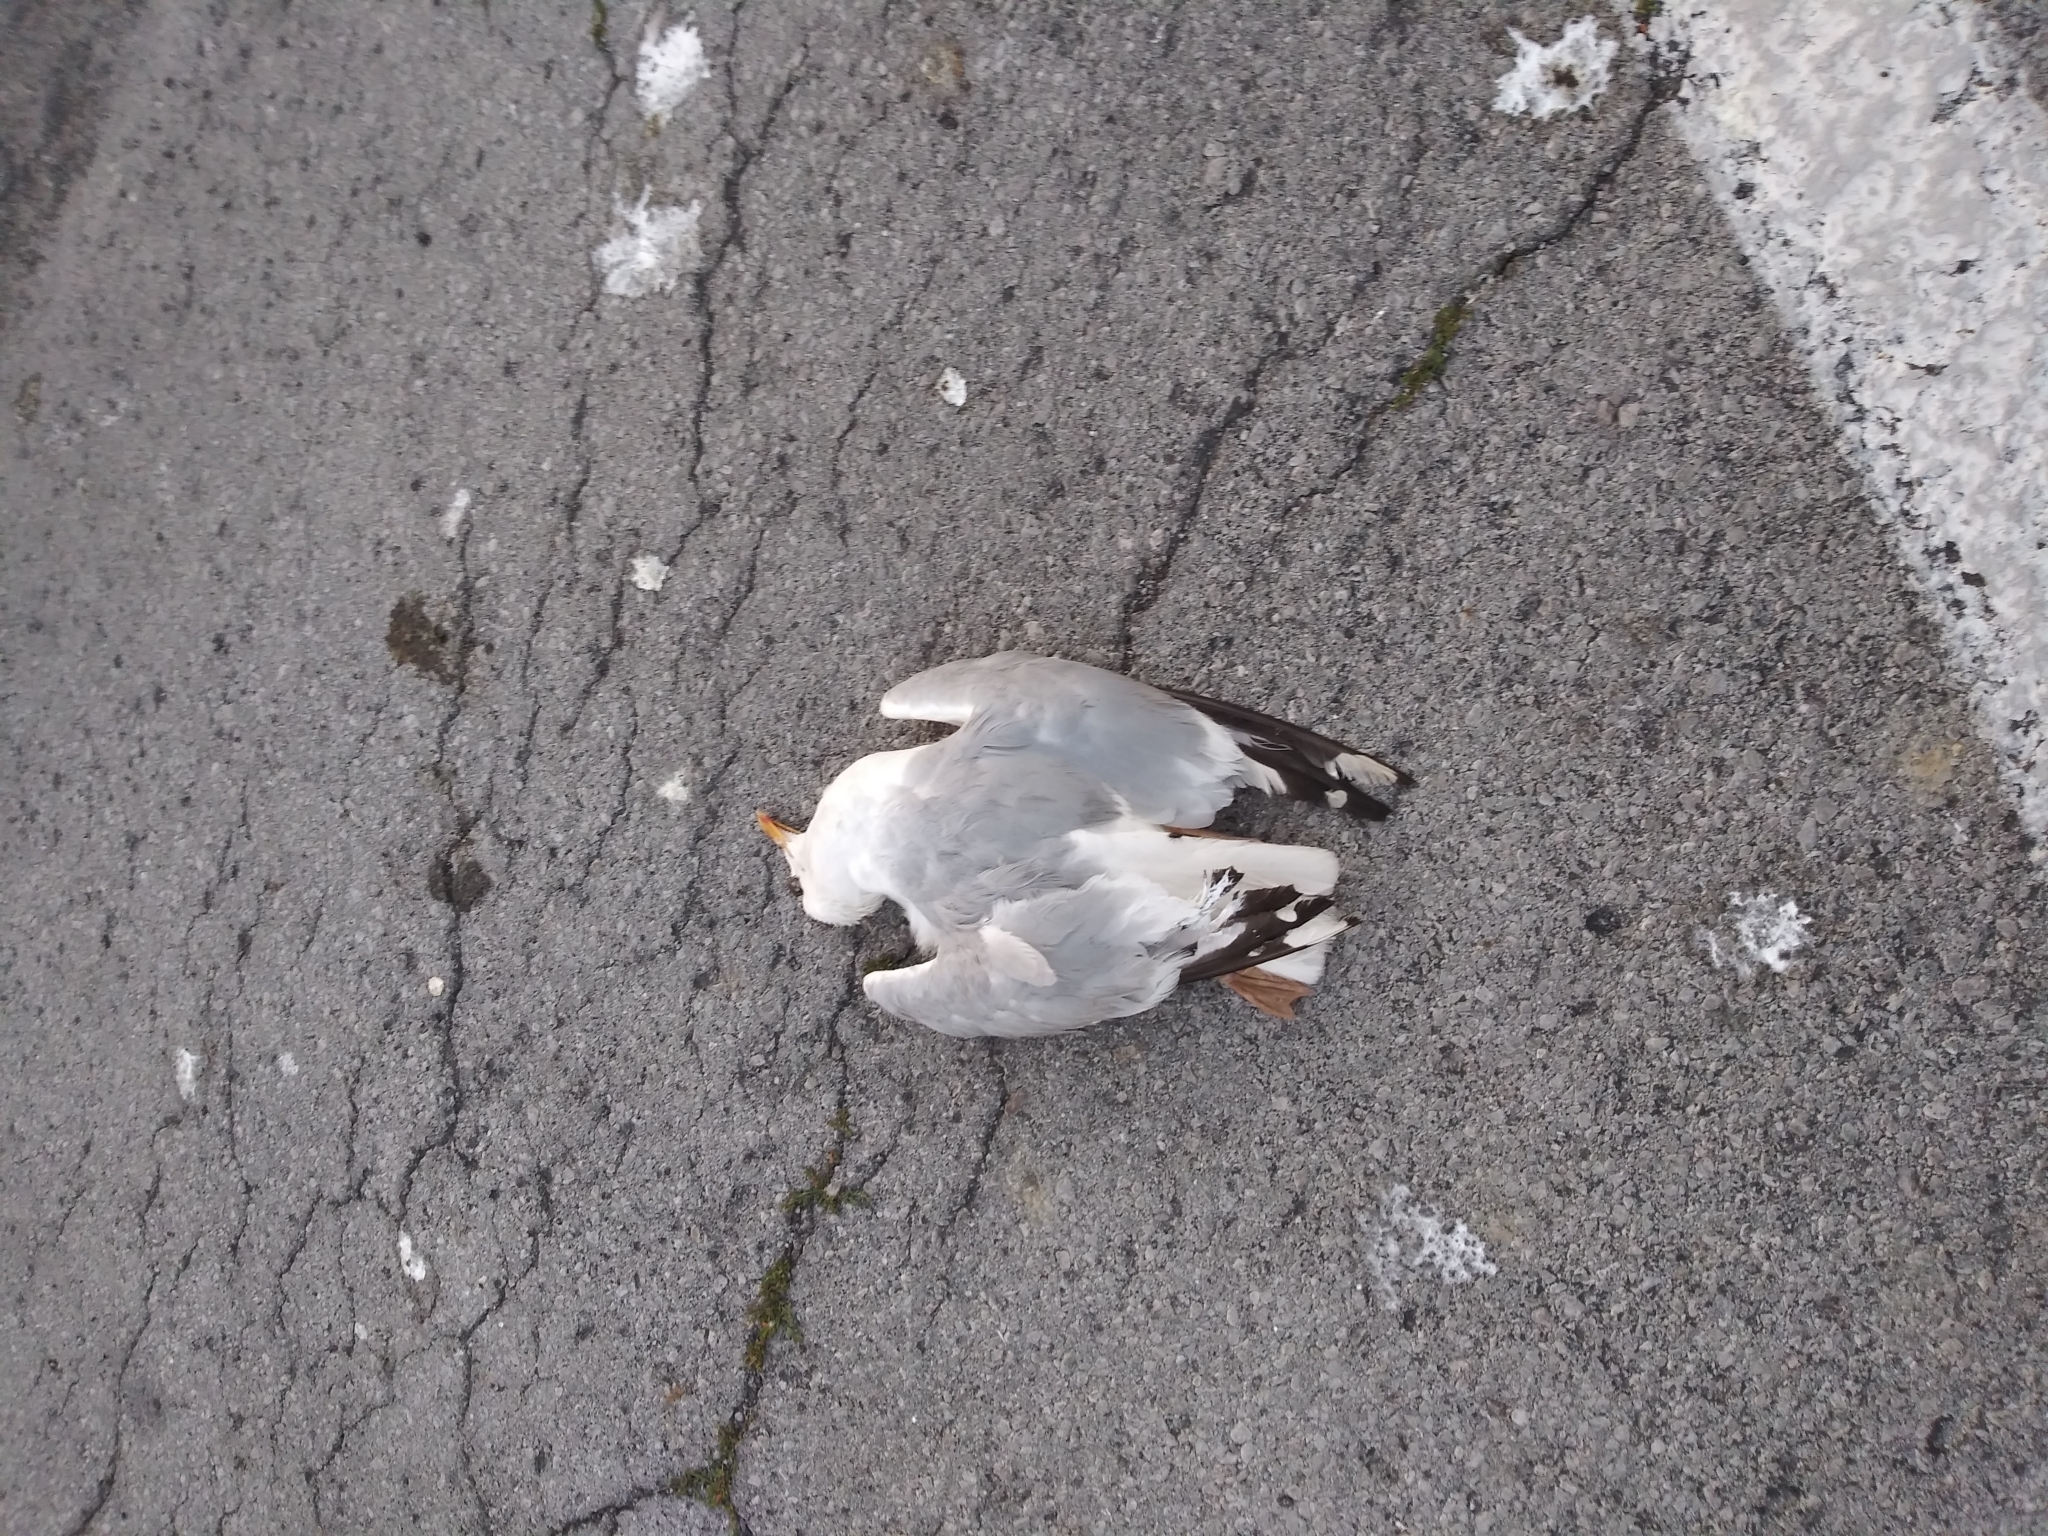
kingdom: Animalia
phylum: Chordata
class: Aves
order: Charadriiformes
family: Laridae
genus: Larus
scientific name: Larus argentatus
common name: Herring gull
